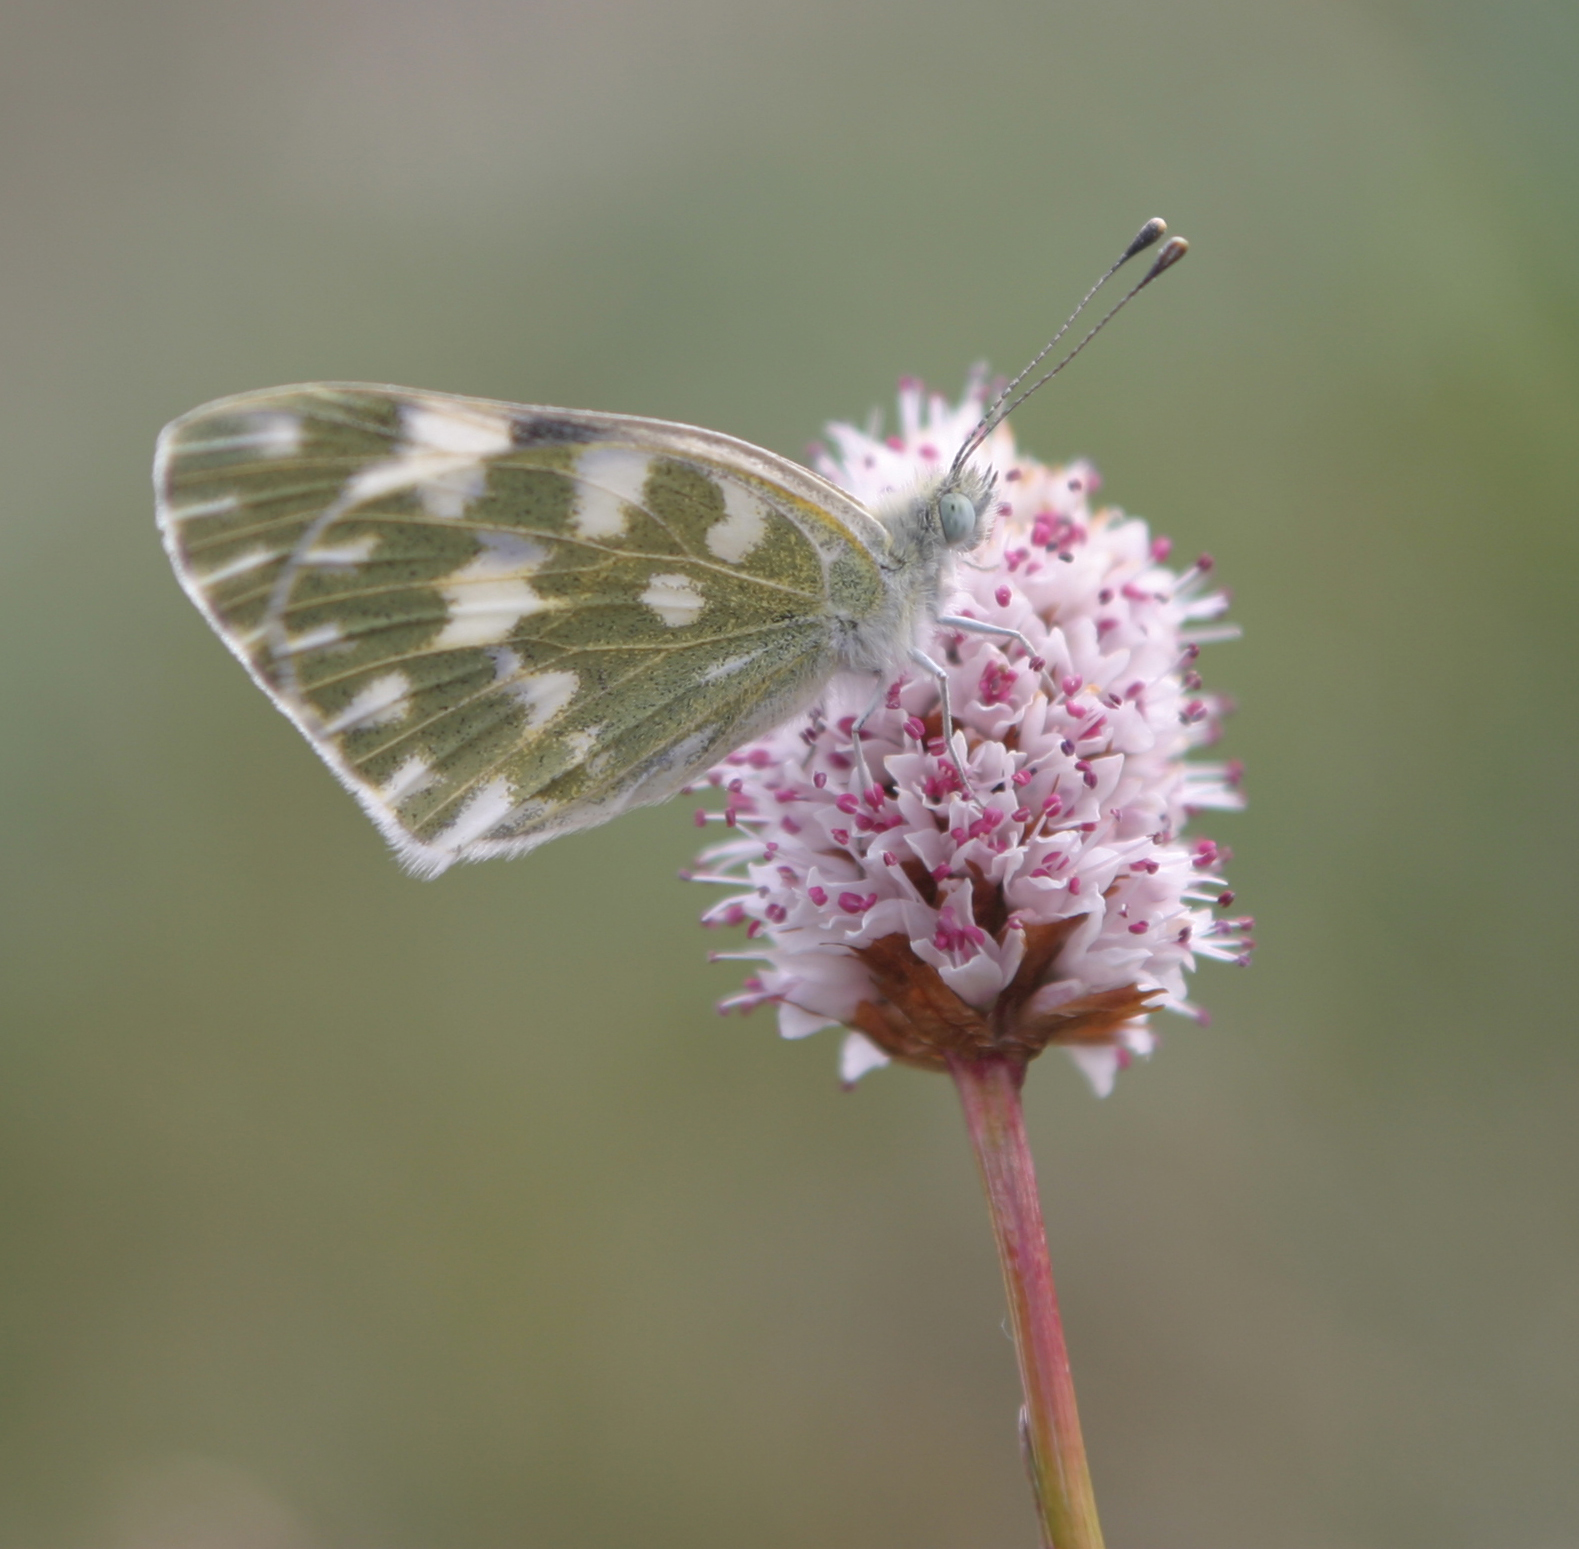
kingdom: Plantae
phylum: Tracheophyta
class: Magnoliopsida
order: Caryophyllales
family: Polygonaceae
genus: Bistorta
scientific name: Bistorta elliptica
